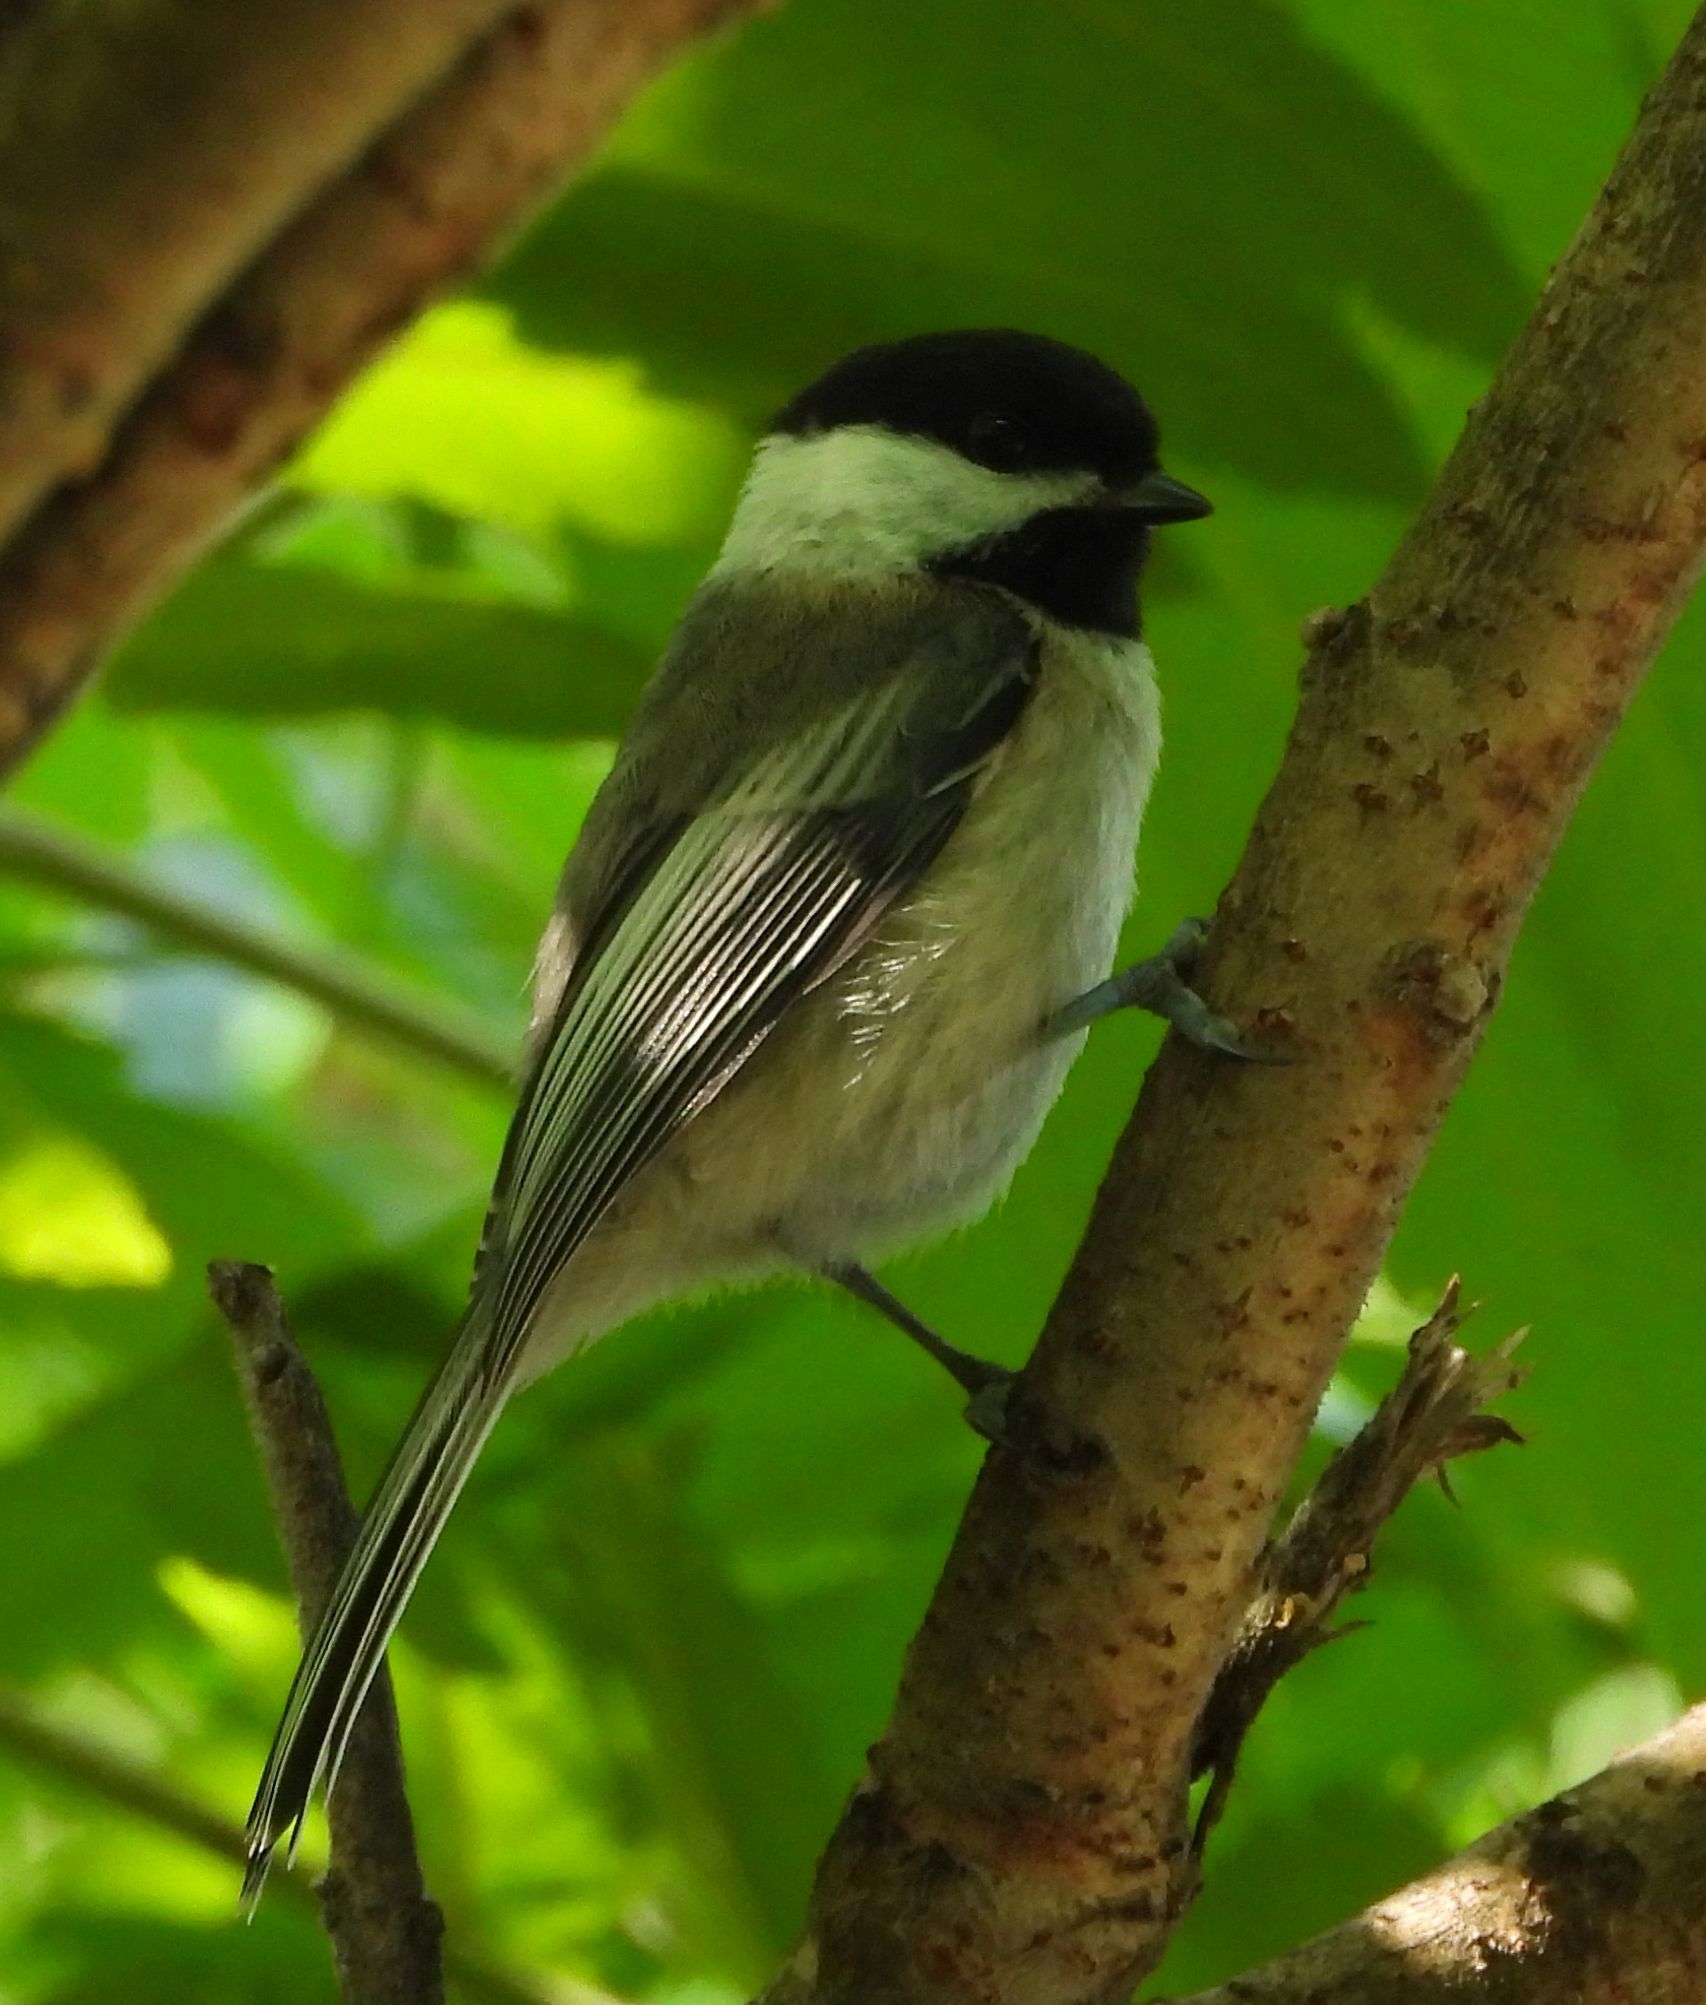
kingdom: Animalia
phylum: Chordata
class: Aves
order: Passeriformes
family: Paridae
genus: Poecile
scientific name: Poecile atricapillus
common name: Black-capped chickadee
